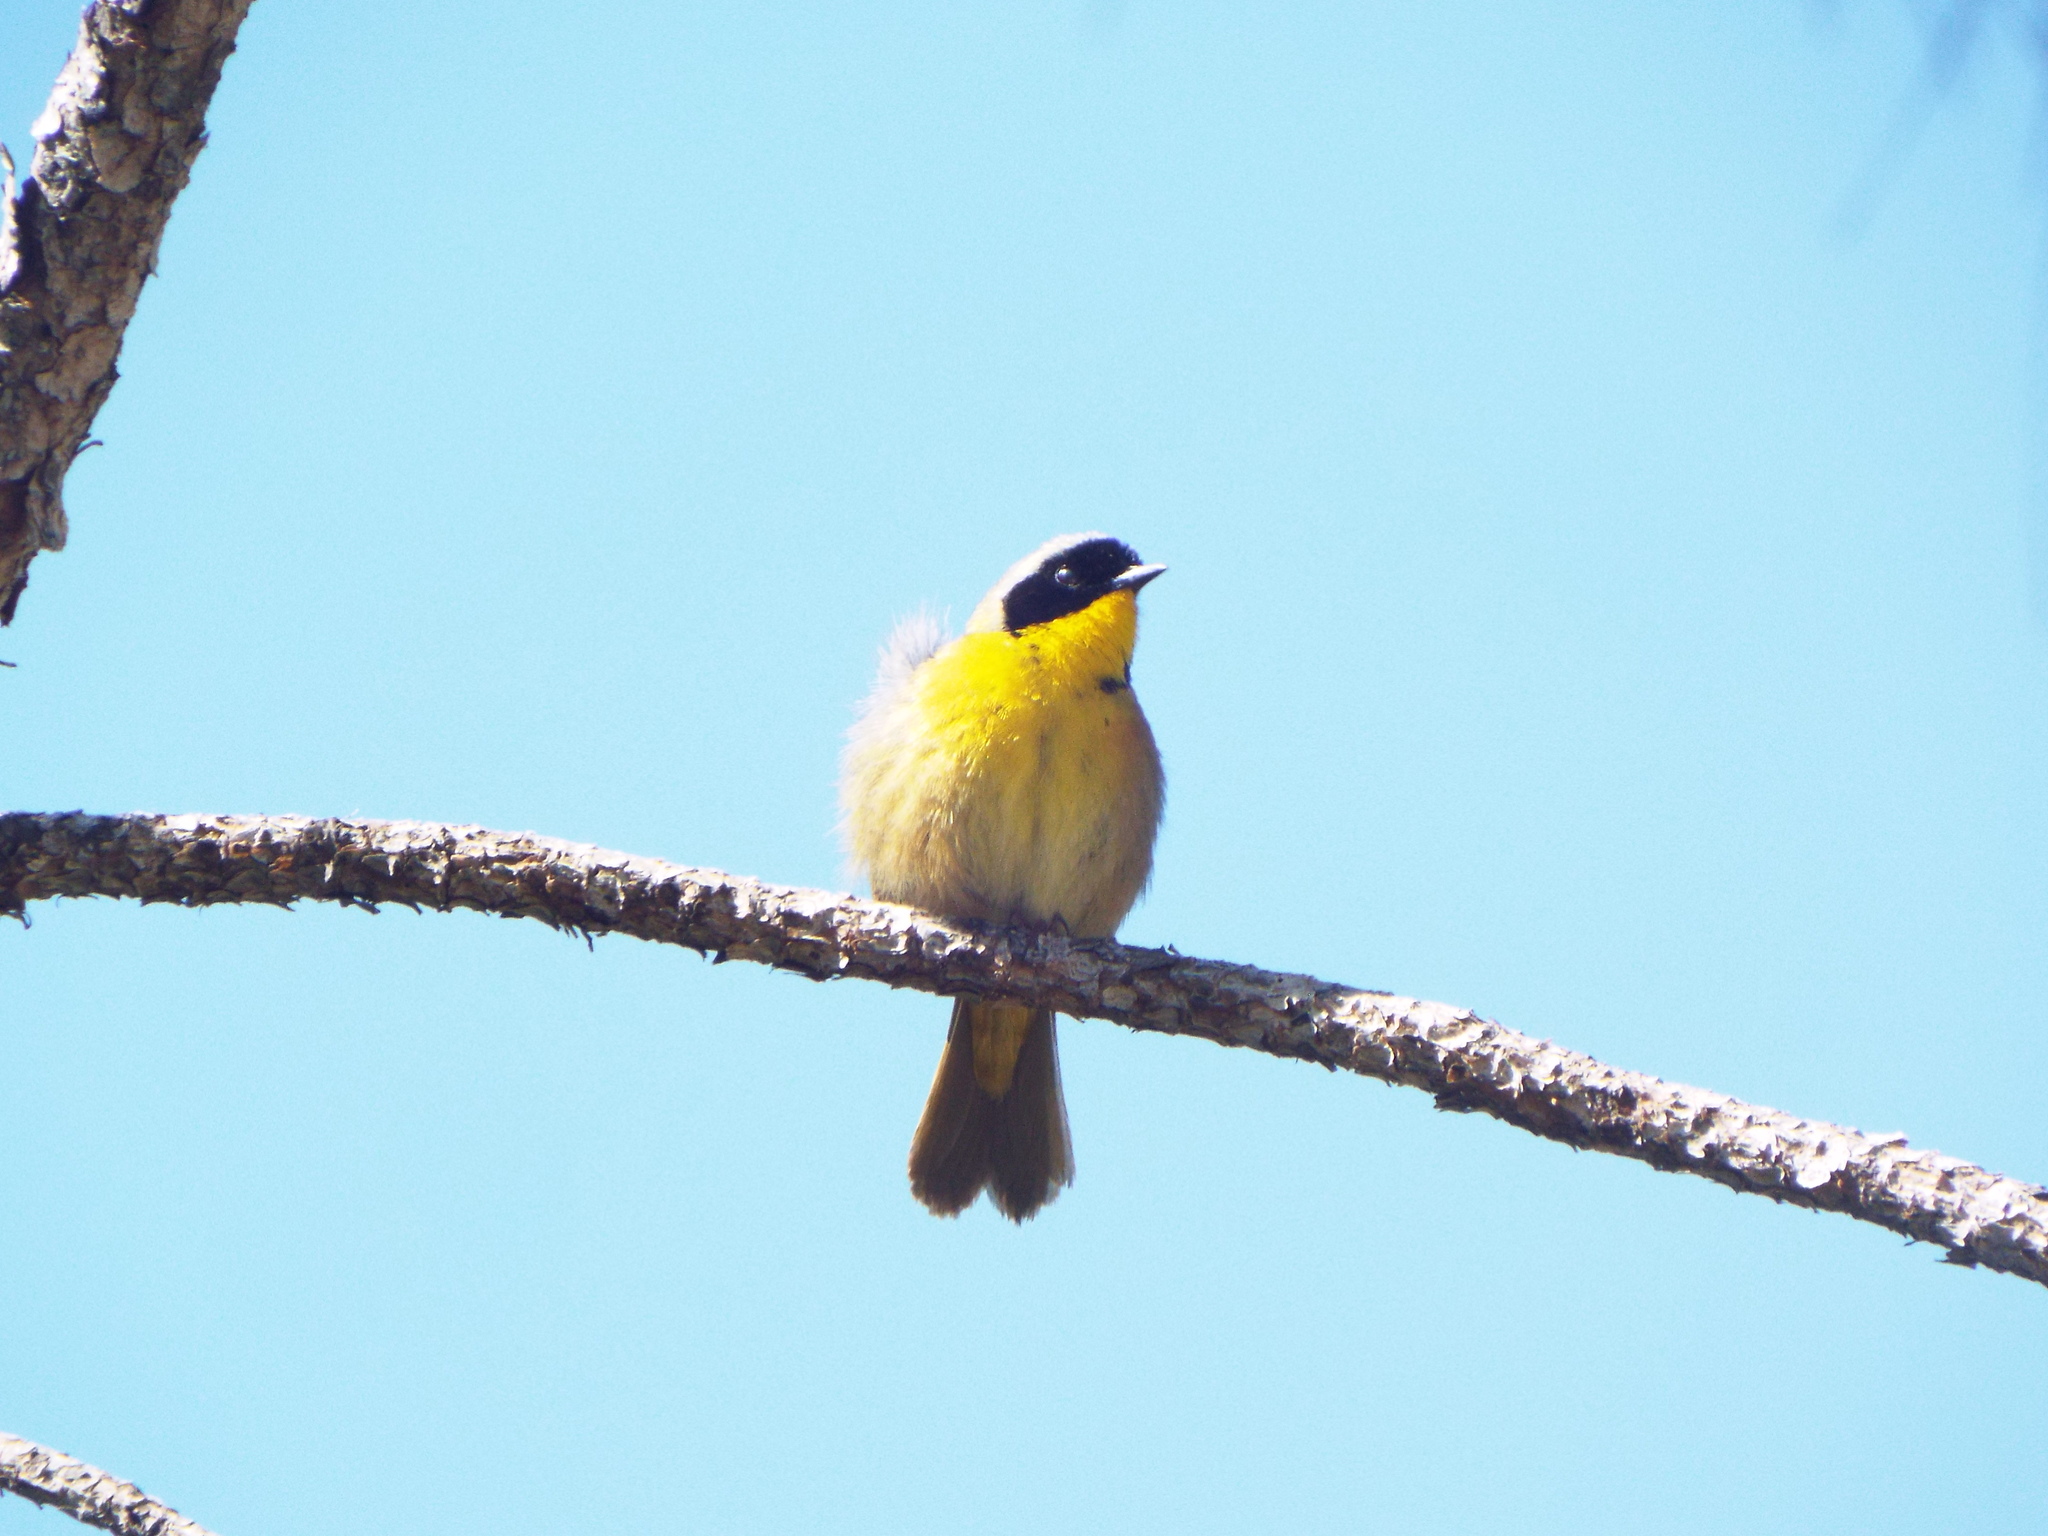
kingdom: Animalia
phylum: Chordata
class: Aves
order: Passeriformes
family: Parulidae
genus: Geothlypis
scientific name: Geothlypis trichas
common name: Common yellowthroat
